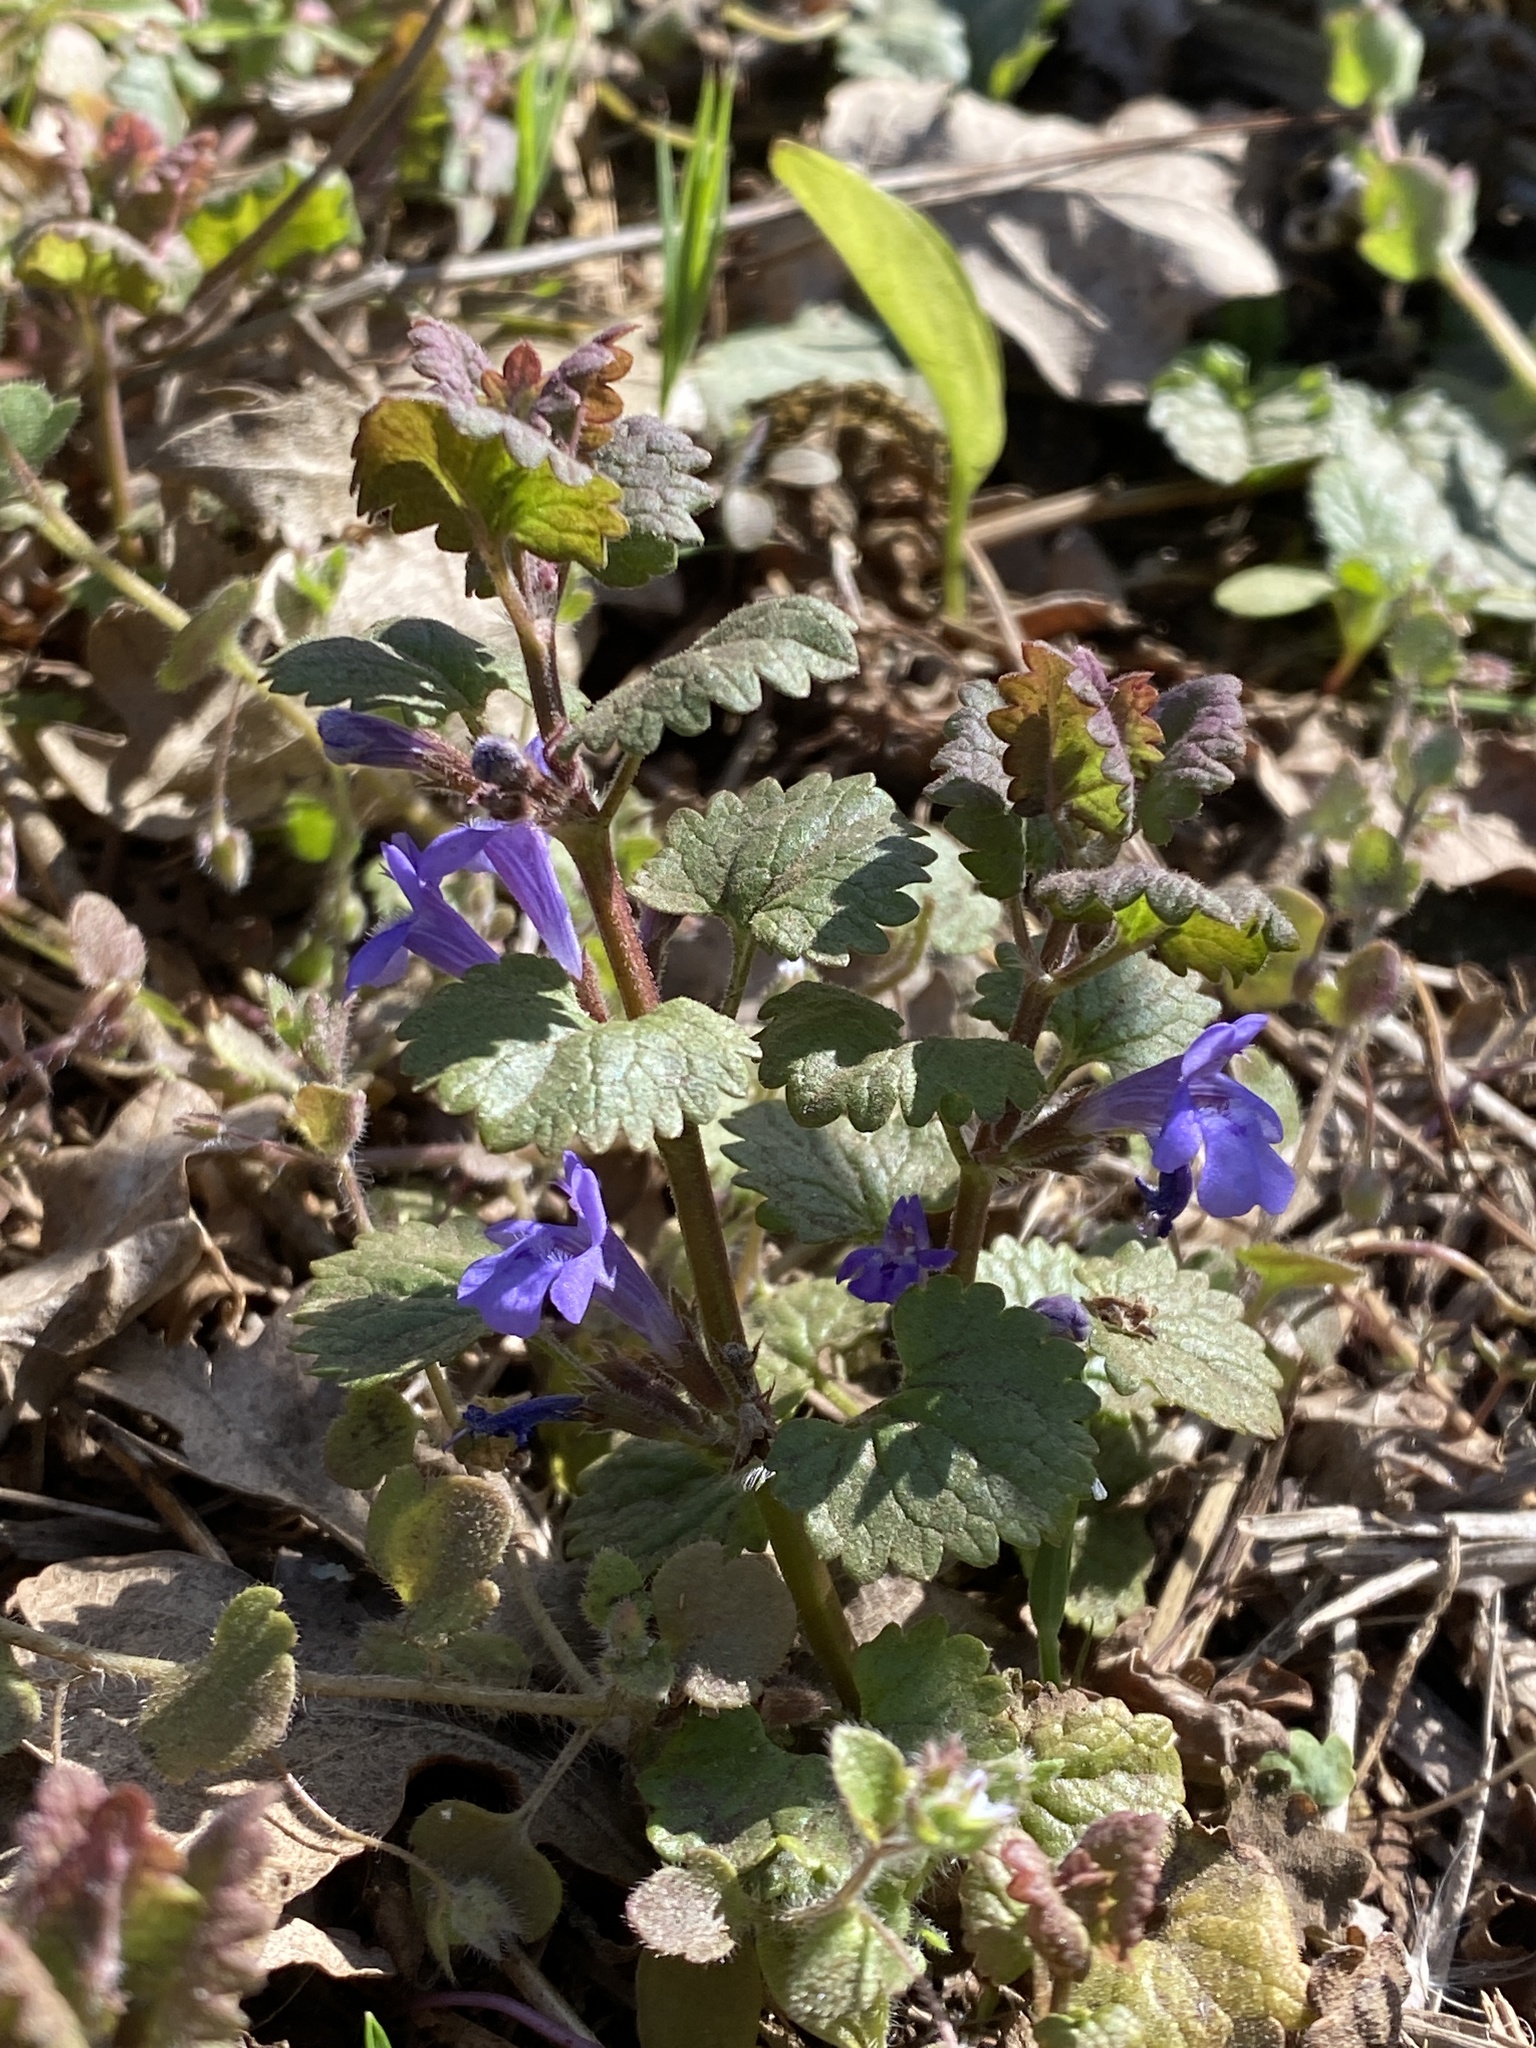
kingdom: Plantae
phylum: Tracheophyta
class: Magnoliopsida
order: Lamiales
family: Lamiaceae
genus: Glechoma
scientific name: Glechoma hederacea
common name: Ground ivy
